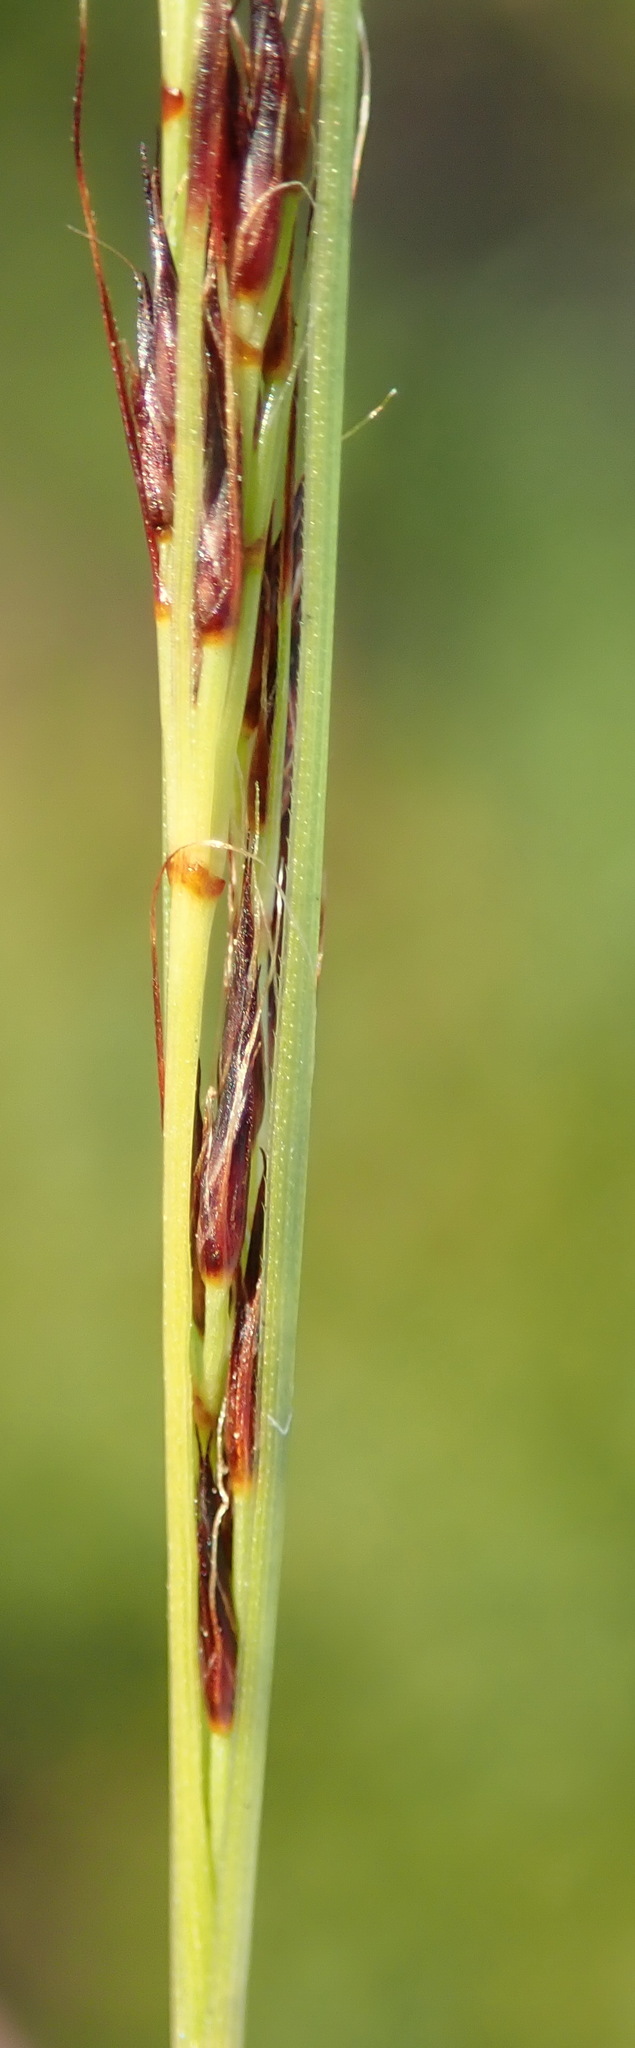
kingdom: Plantae
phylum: Tracheophyta
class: Liliopsida
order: Poales
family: Cyperaceae
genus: Schoenus
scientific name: Schoenus graciliculmis
